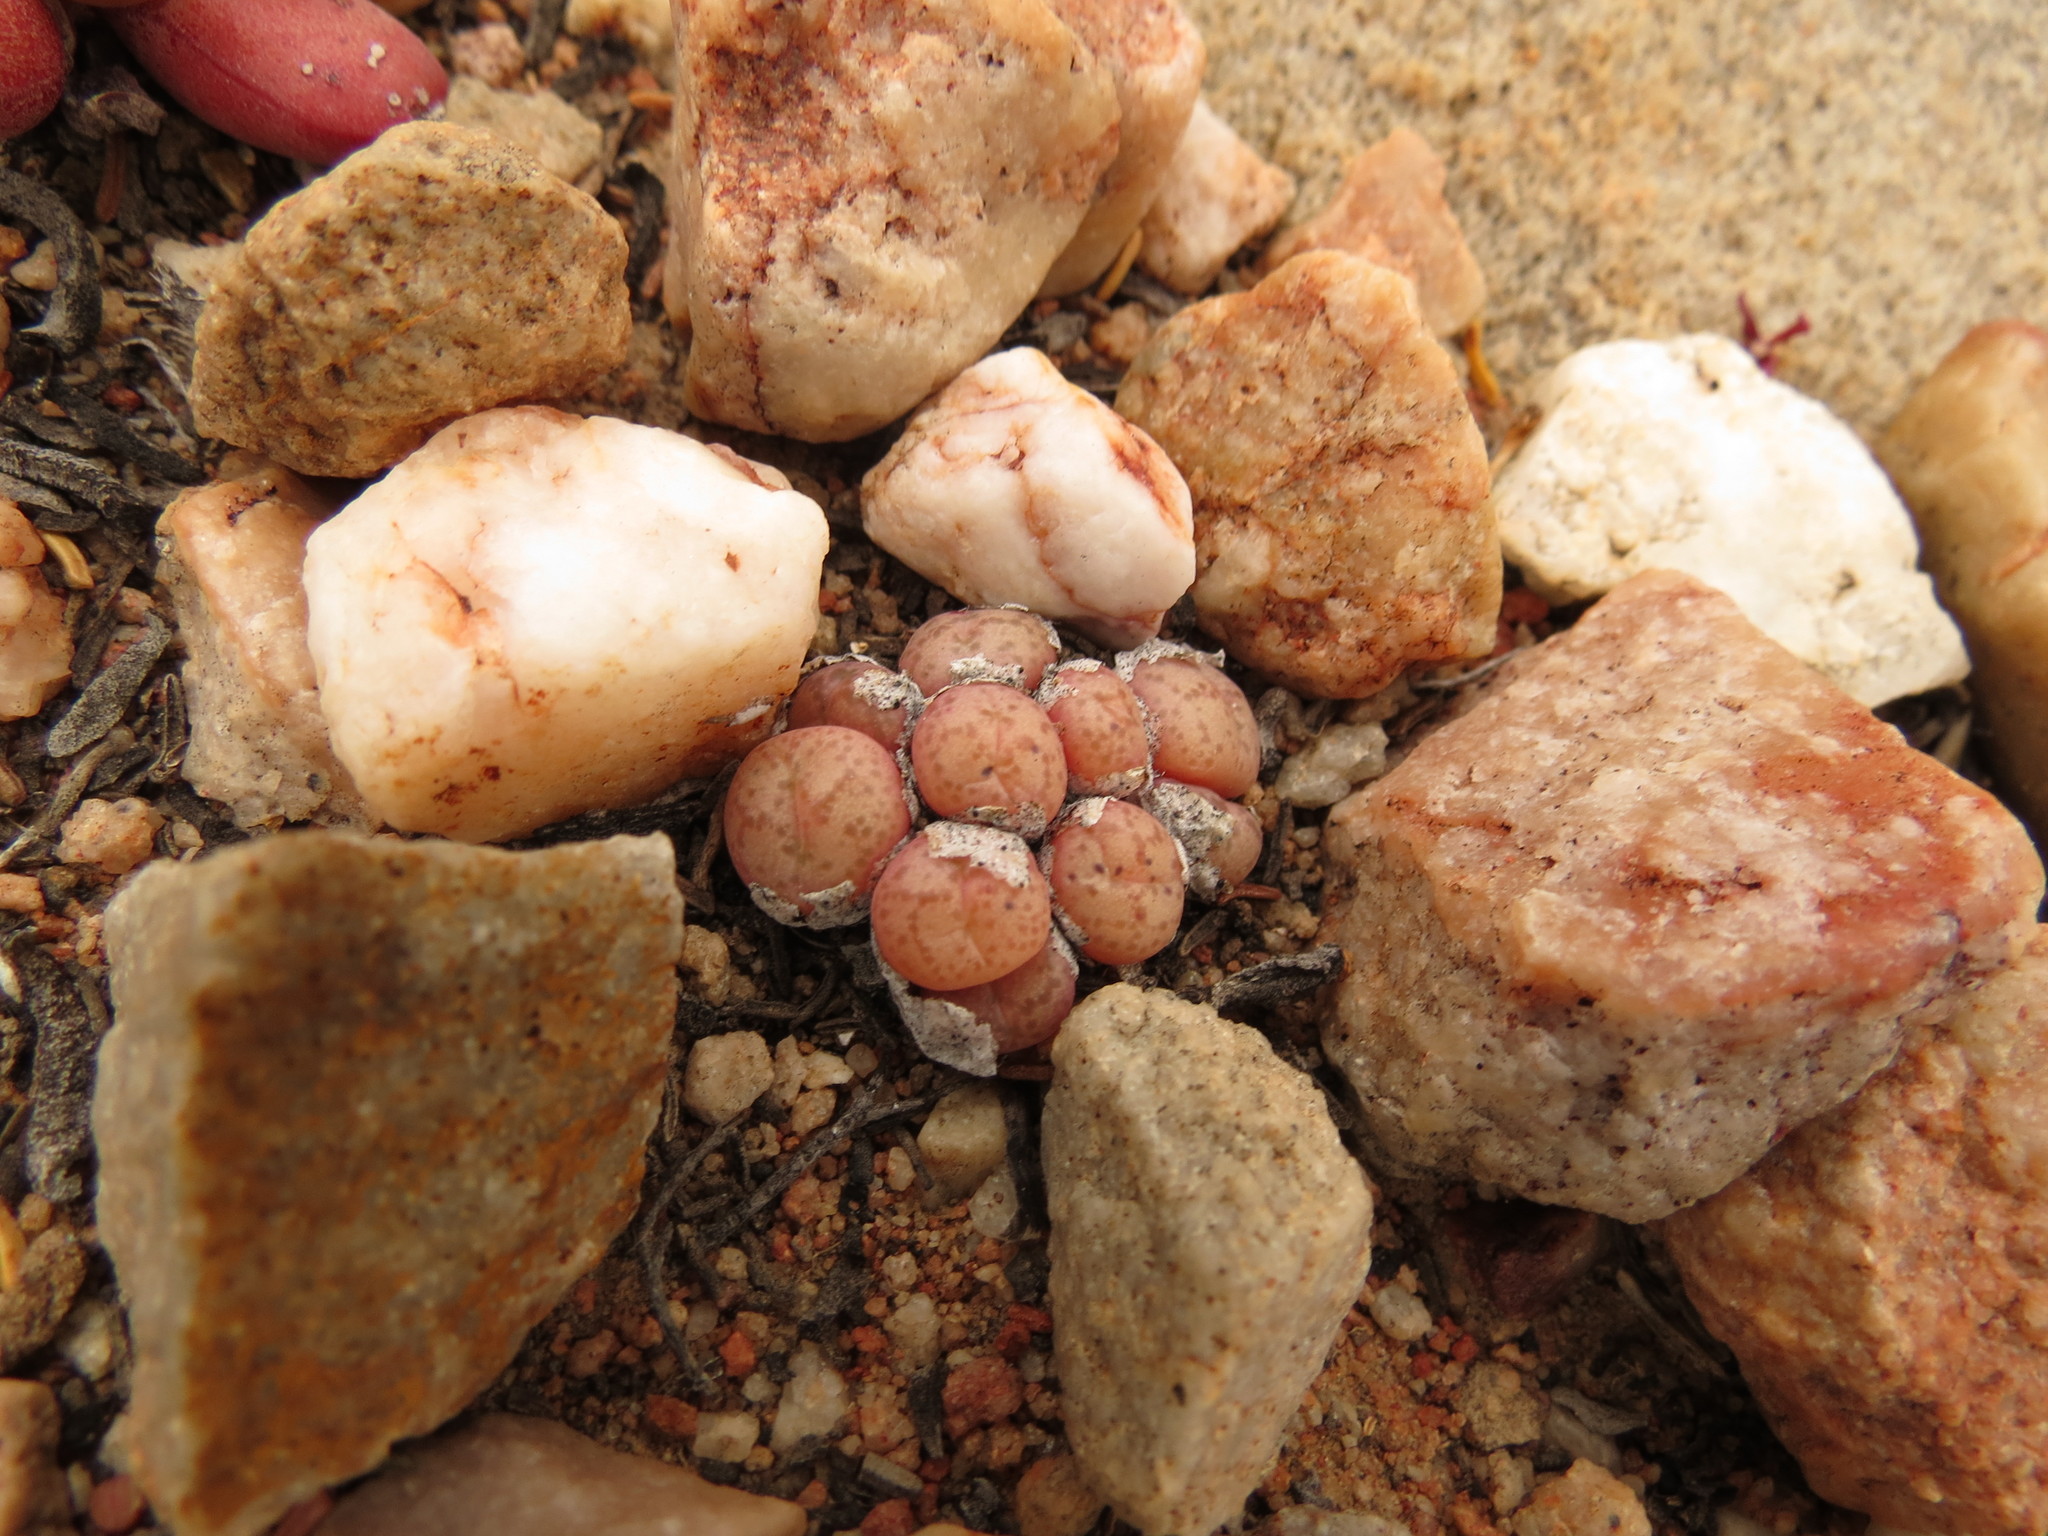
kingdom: Plantae
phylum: Tracheophyta
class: Magnoliopsida
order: Caryophyllales
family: Aizoaceae
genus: Conophytum
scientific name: Conophytum truncatum
